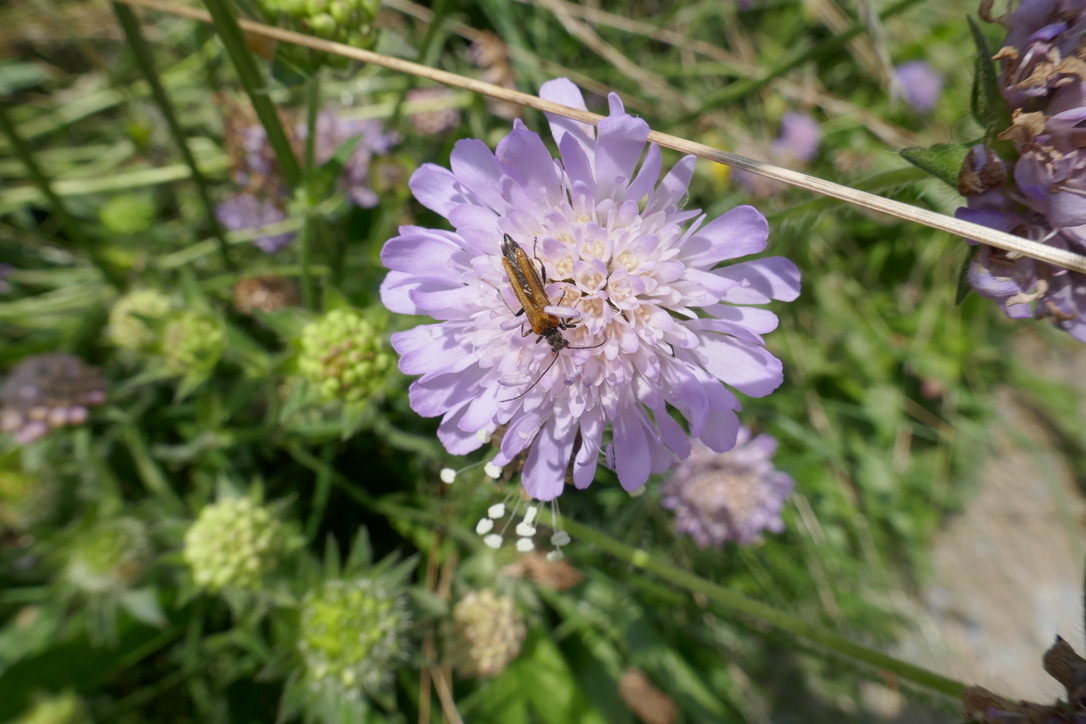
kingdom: Animalia
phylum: Arthropoda
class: Insecta
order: Coleoptera
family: Oedemeridae
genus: Oedemera
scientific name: Oedemera femorata
